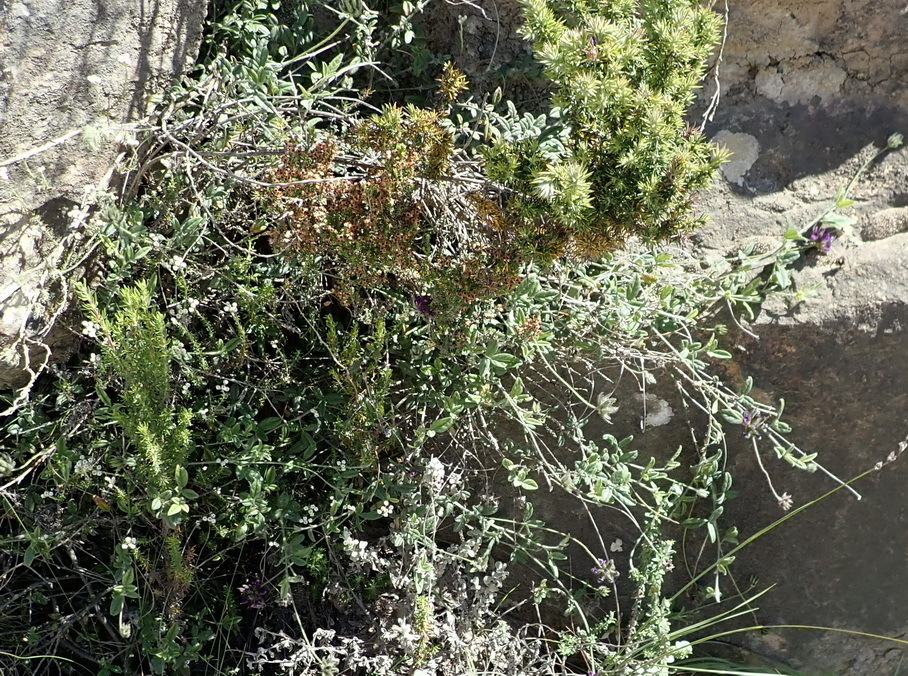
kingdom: Plantae
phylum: Tracheophyta
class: Magnoliopsida
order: Fabales
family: Fabaceae
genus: Psoralea
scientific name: Psoralea swartbergensis
